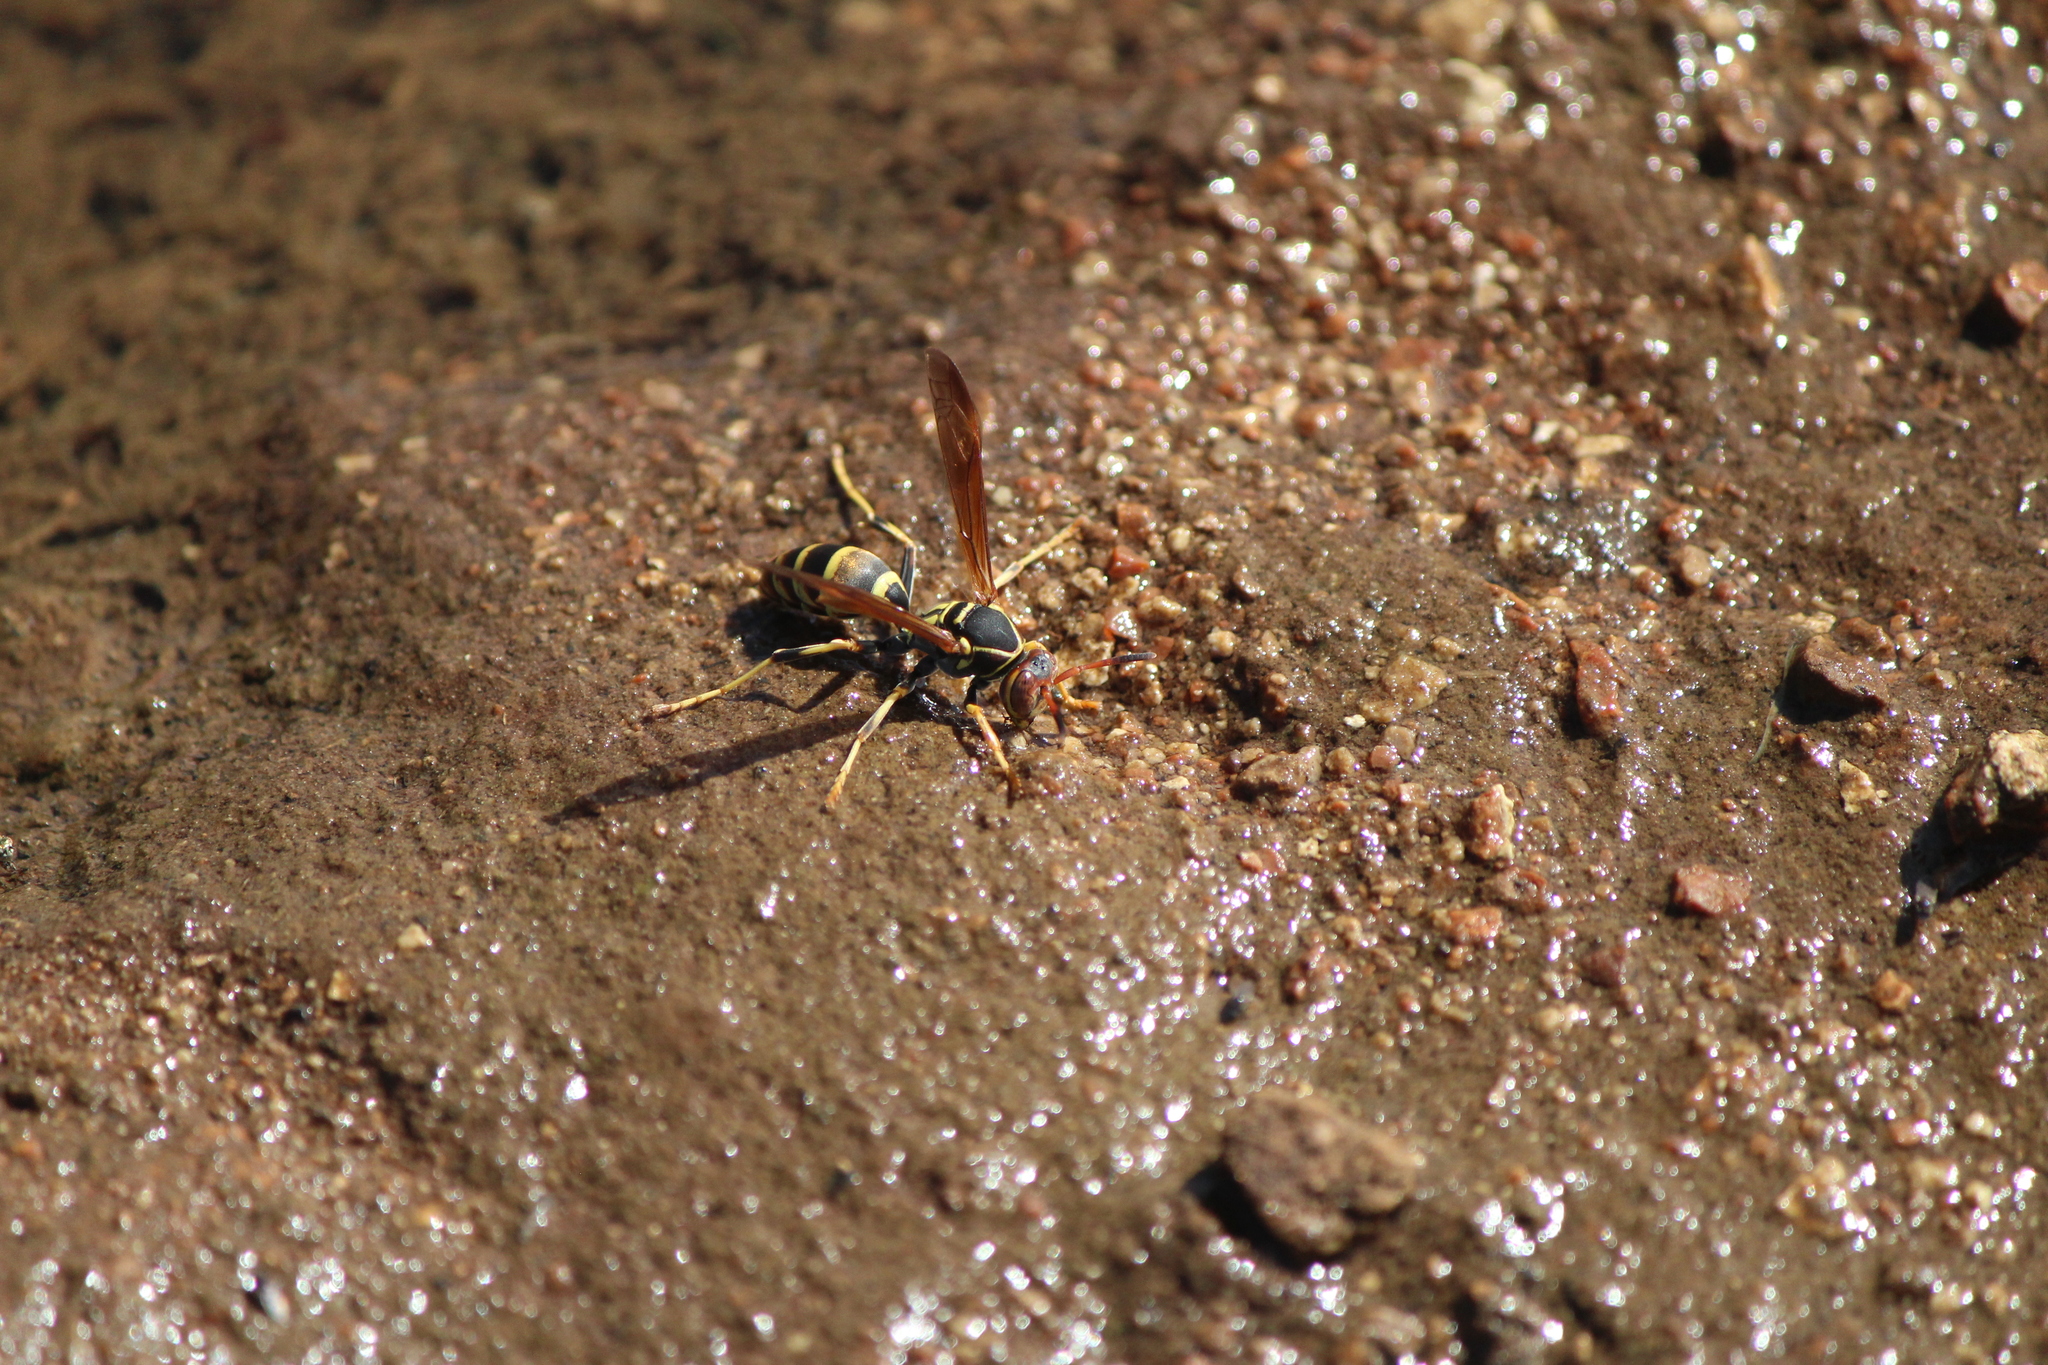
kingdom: Animalia
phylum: Arthropoda
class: Insecta
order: Hymenoptera
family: Eumenidae
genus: Polistes
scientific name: Polistes dorsalis
